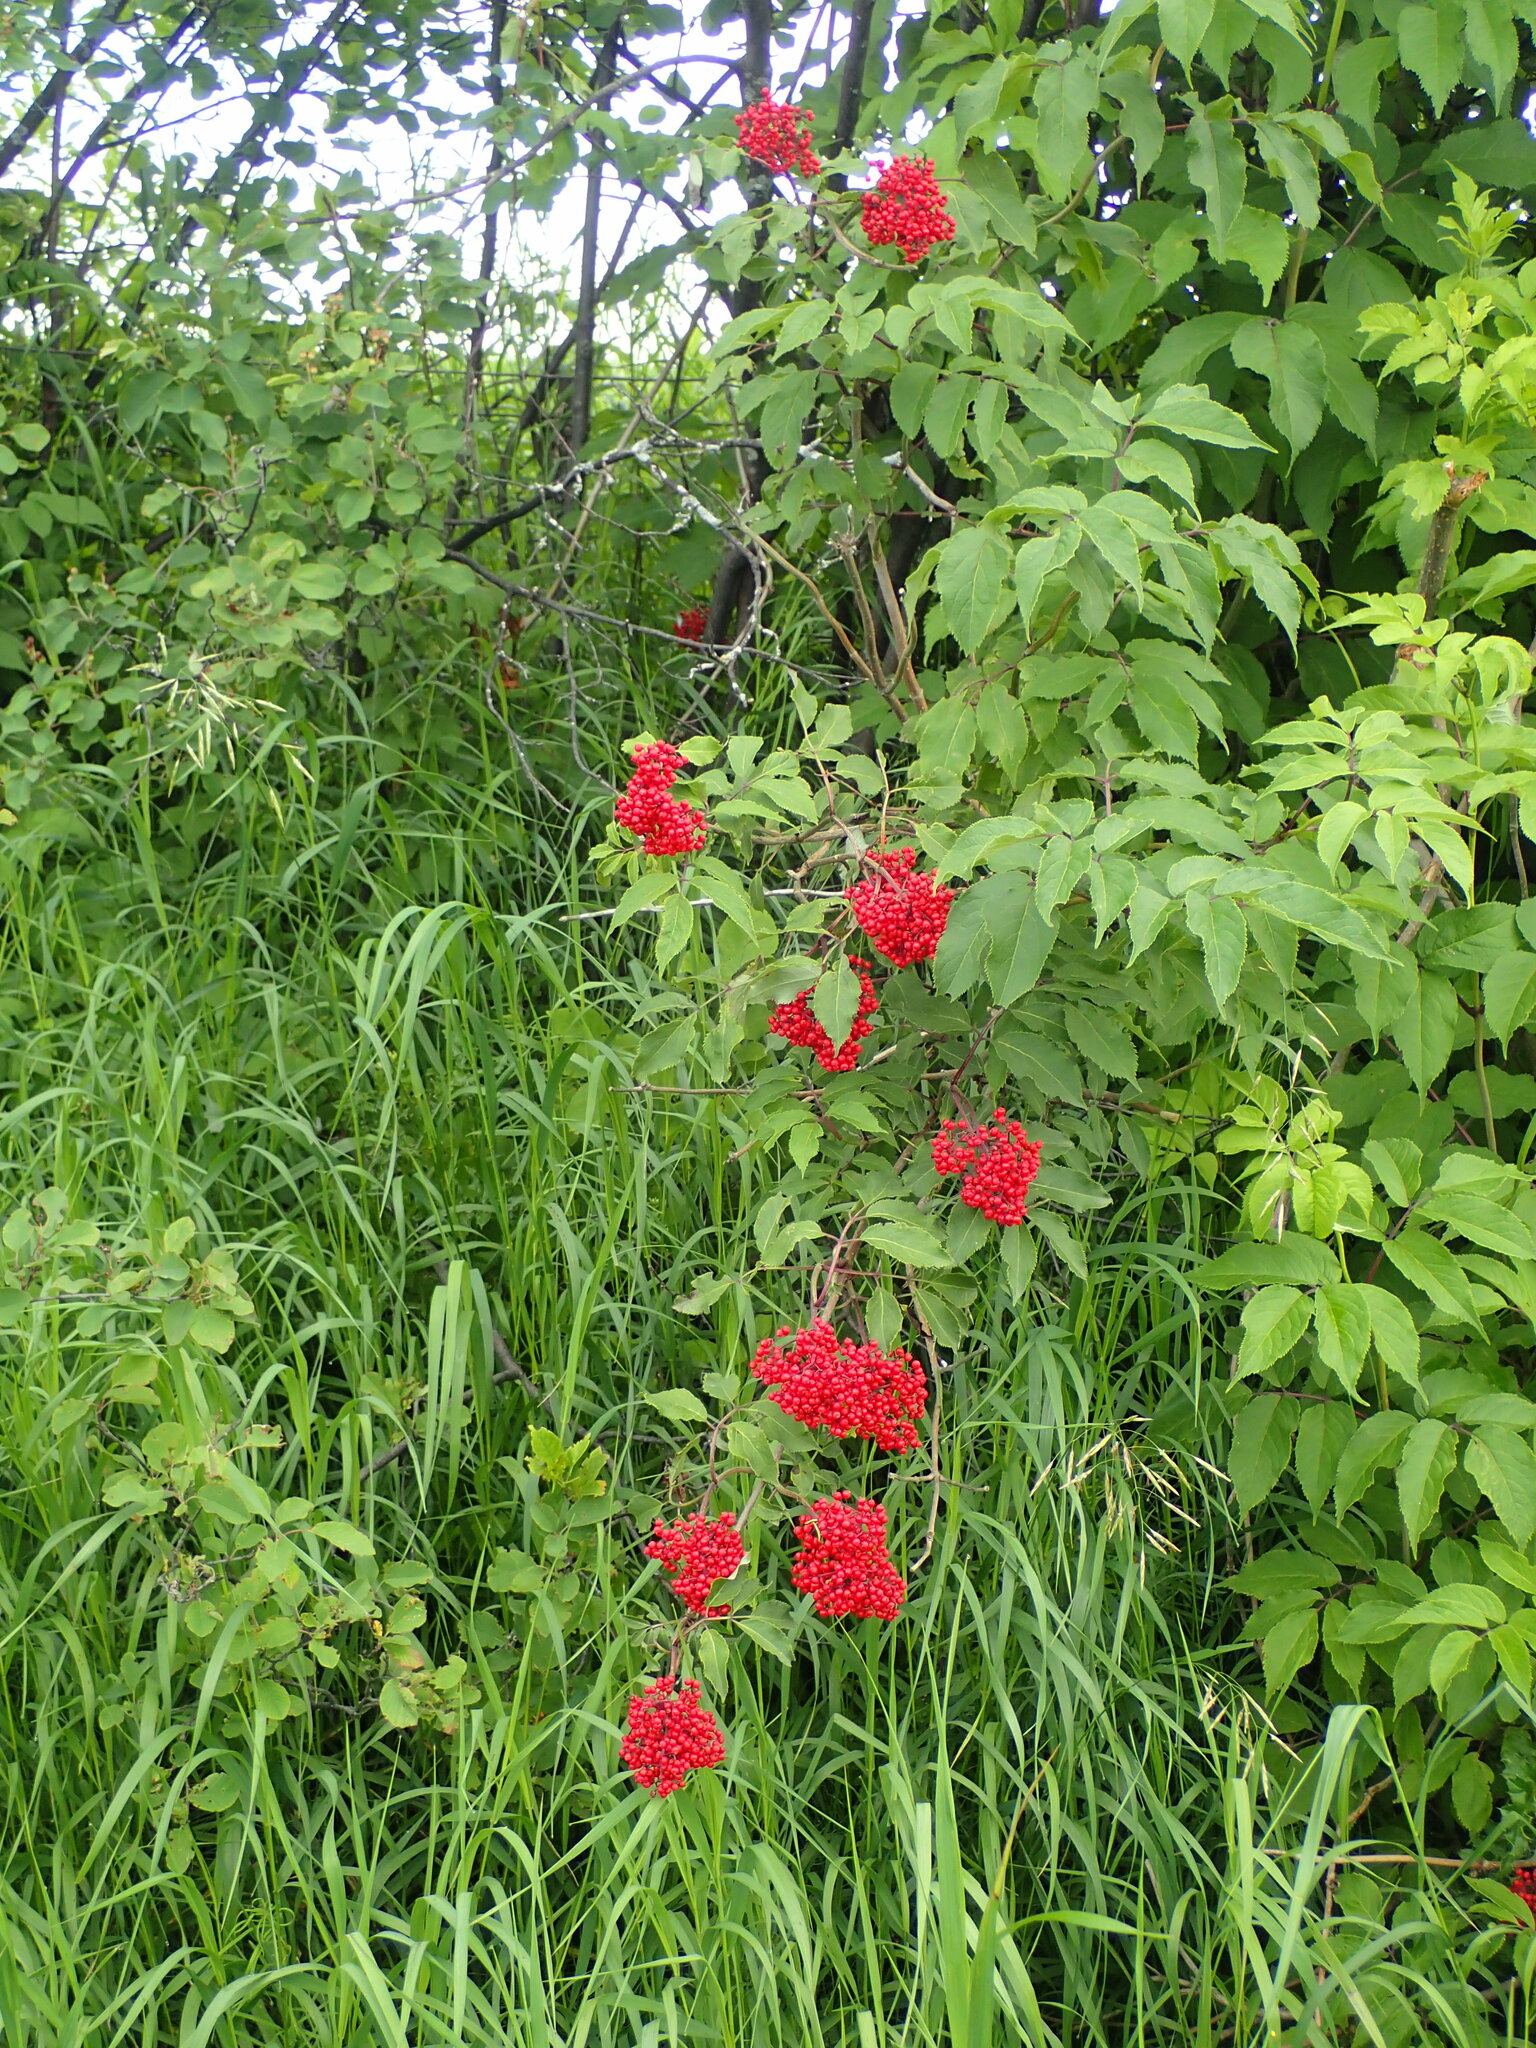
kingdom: Plantae
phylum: Tracheophyta
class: Magnoliopsida
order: Dipsacales
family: Viburnaceae
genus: Sambucus
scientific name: Sambucus racemosa
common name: Red-berried elder
